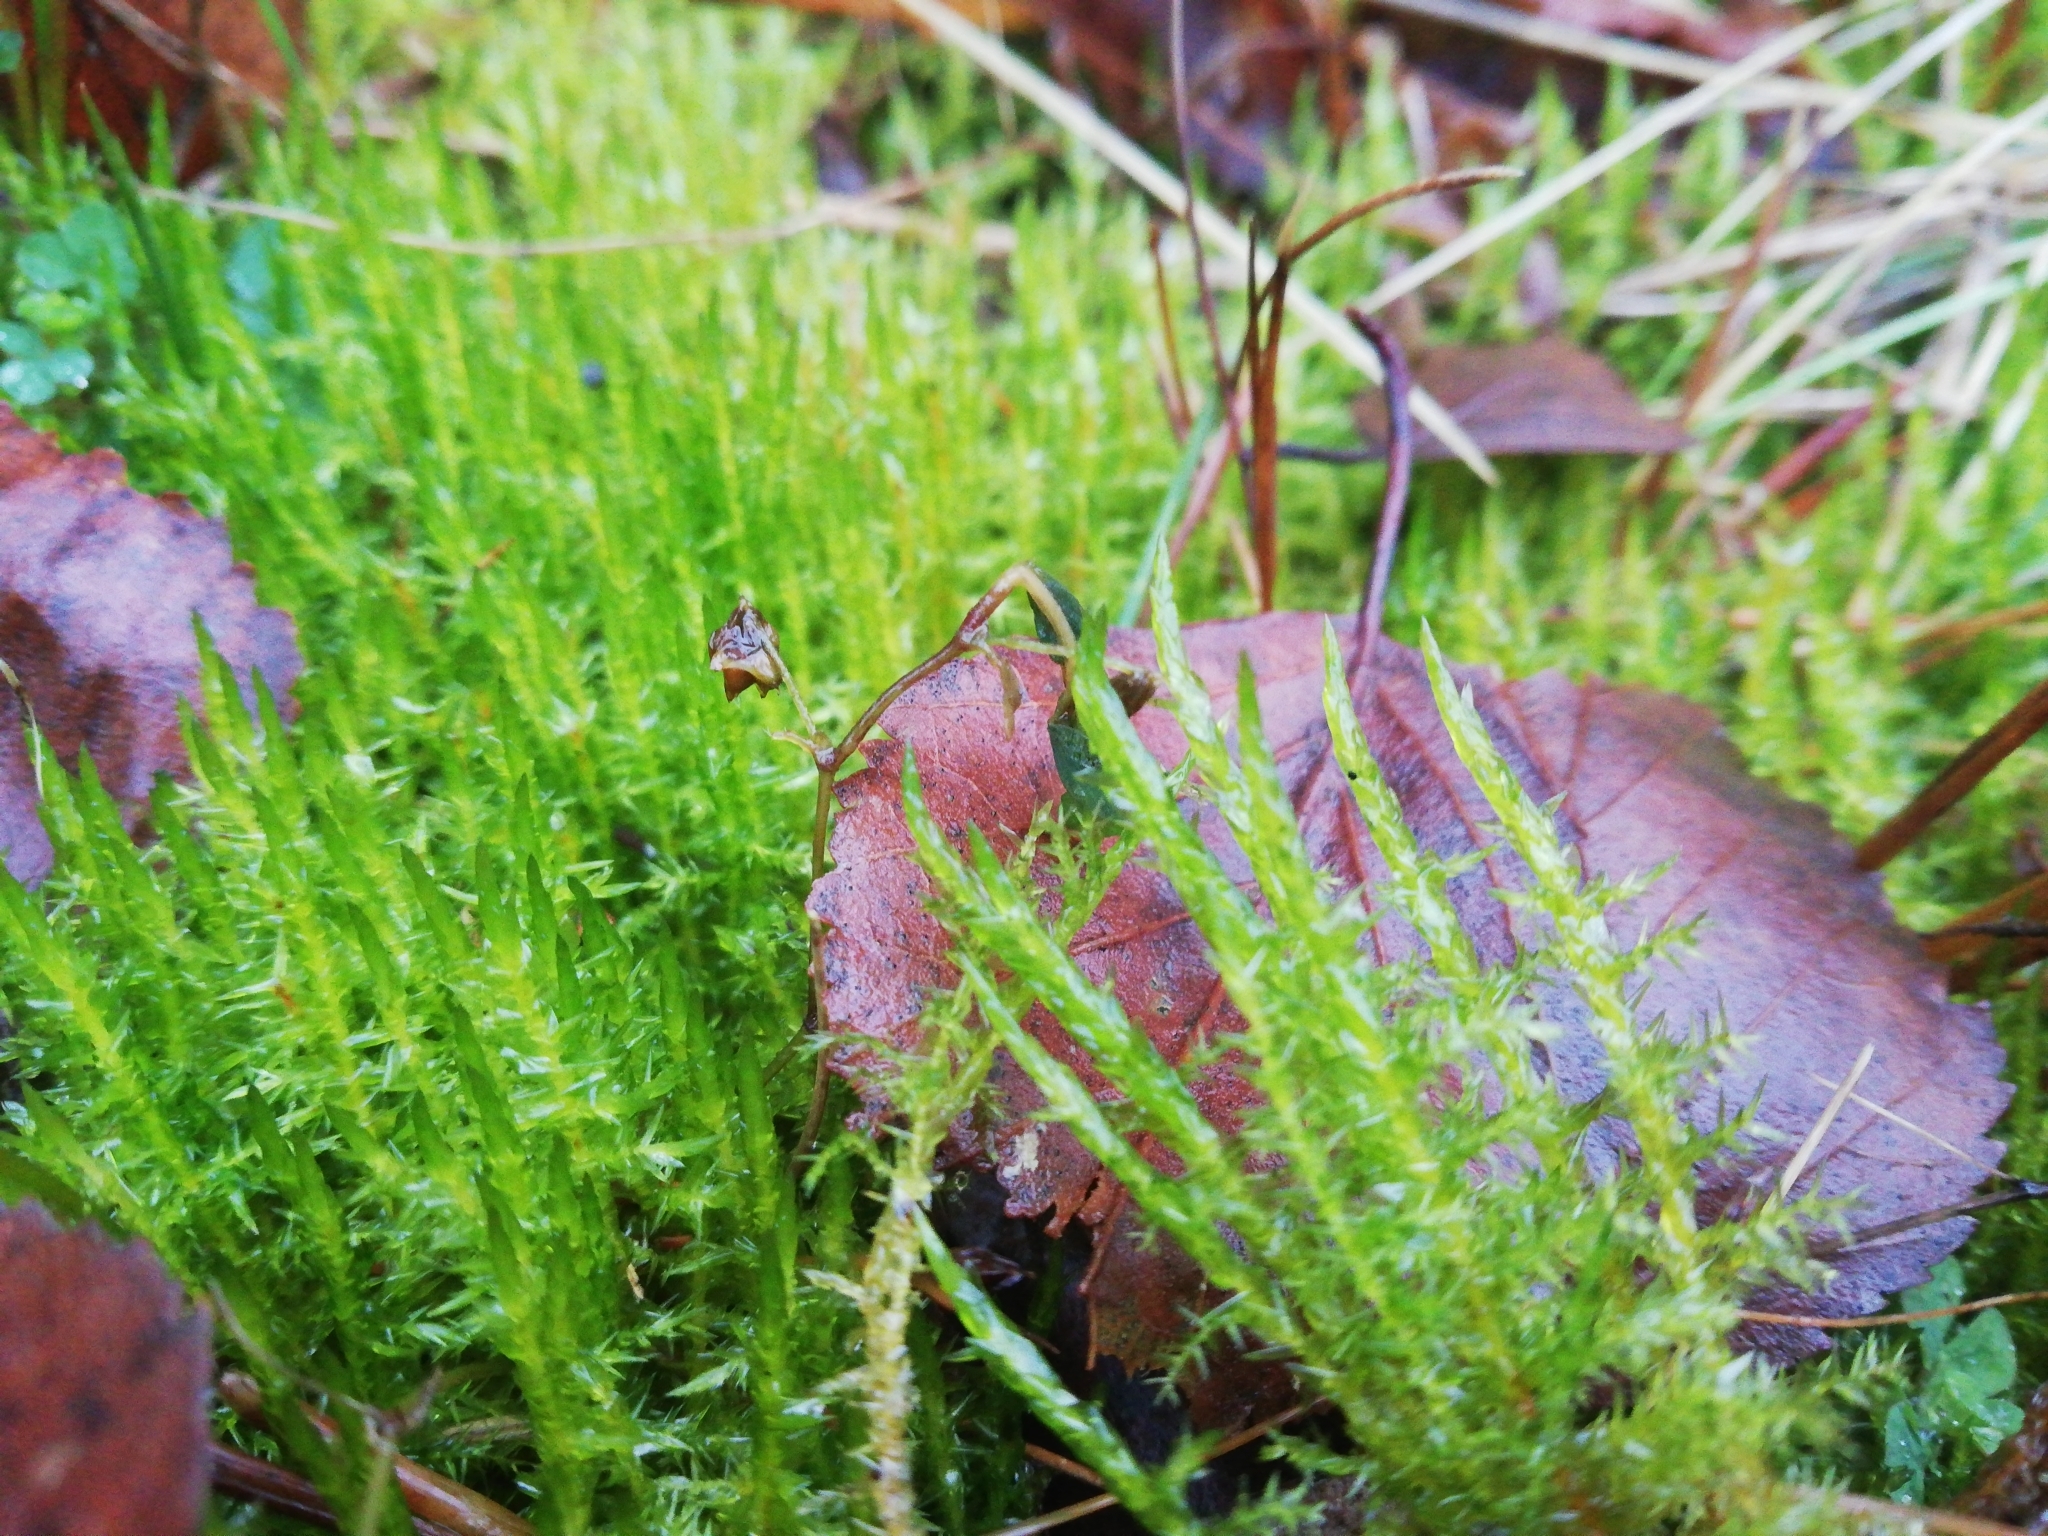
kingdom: Plantae
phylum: Bryophyta
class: Bryopsida
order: Hypnales
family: Pylaisiaceae
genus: Calliergonella
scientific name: Calliergonella cuspidata
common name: Common large wetland moss
